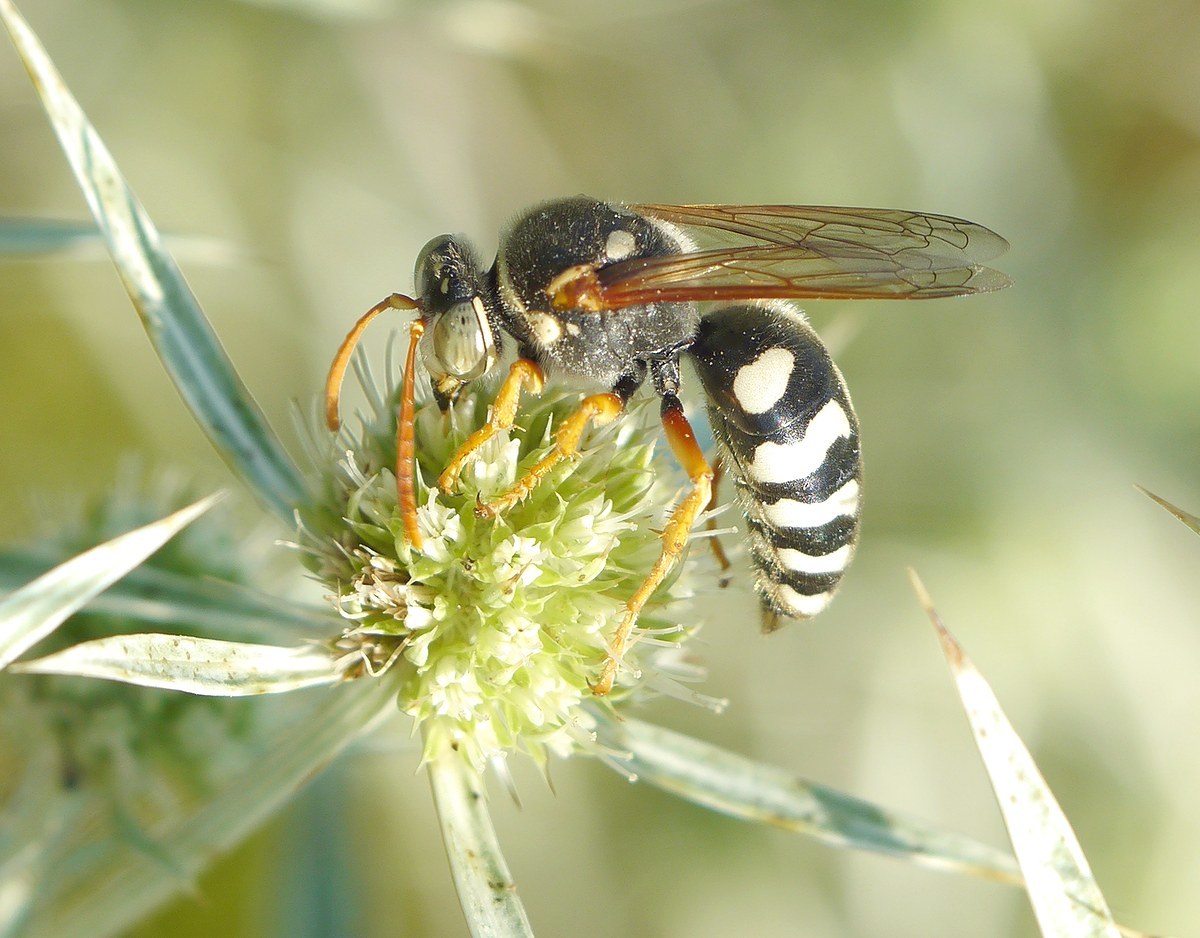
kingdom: Animalia
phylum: Arthropoda
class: Insecta
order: Hymenoptera
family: Crabronidae
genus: Stizus
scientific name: Stizus bipunctatus
